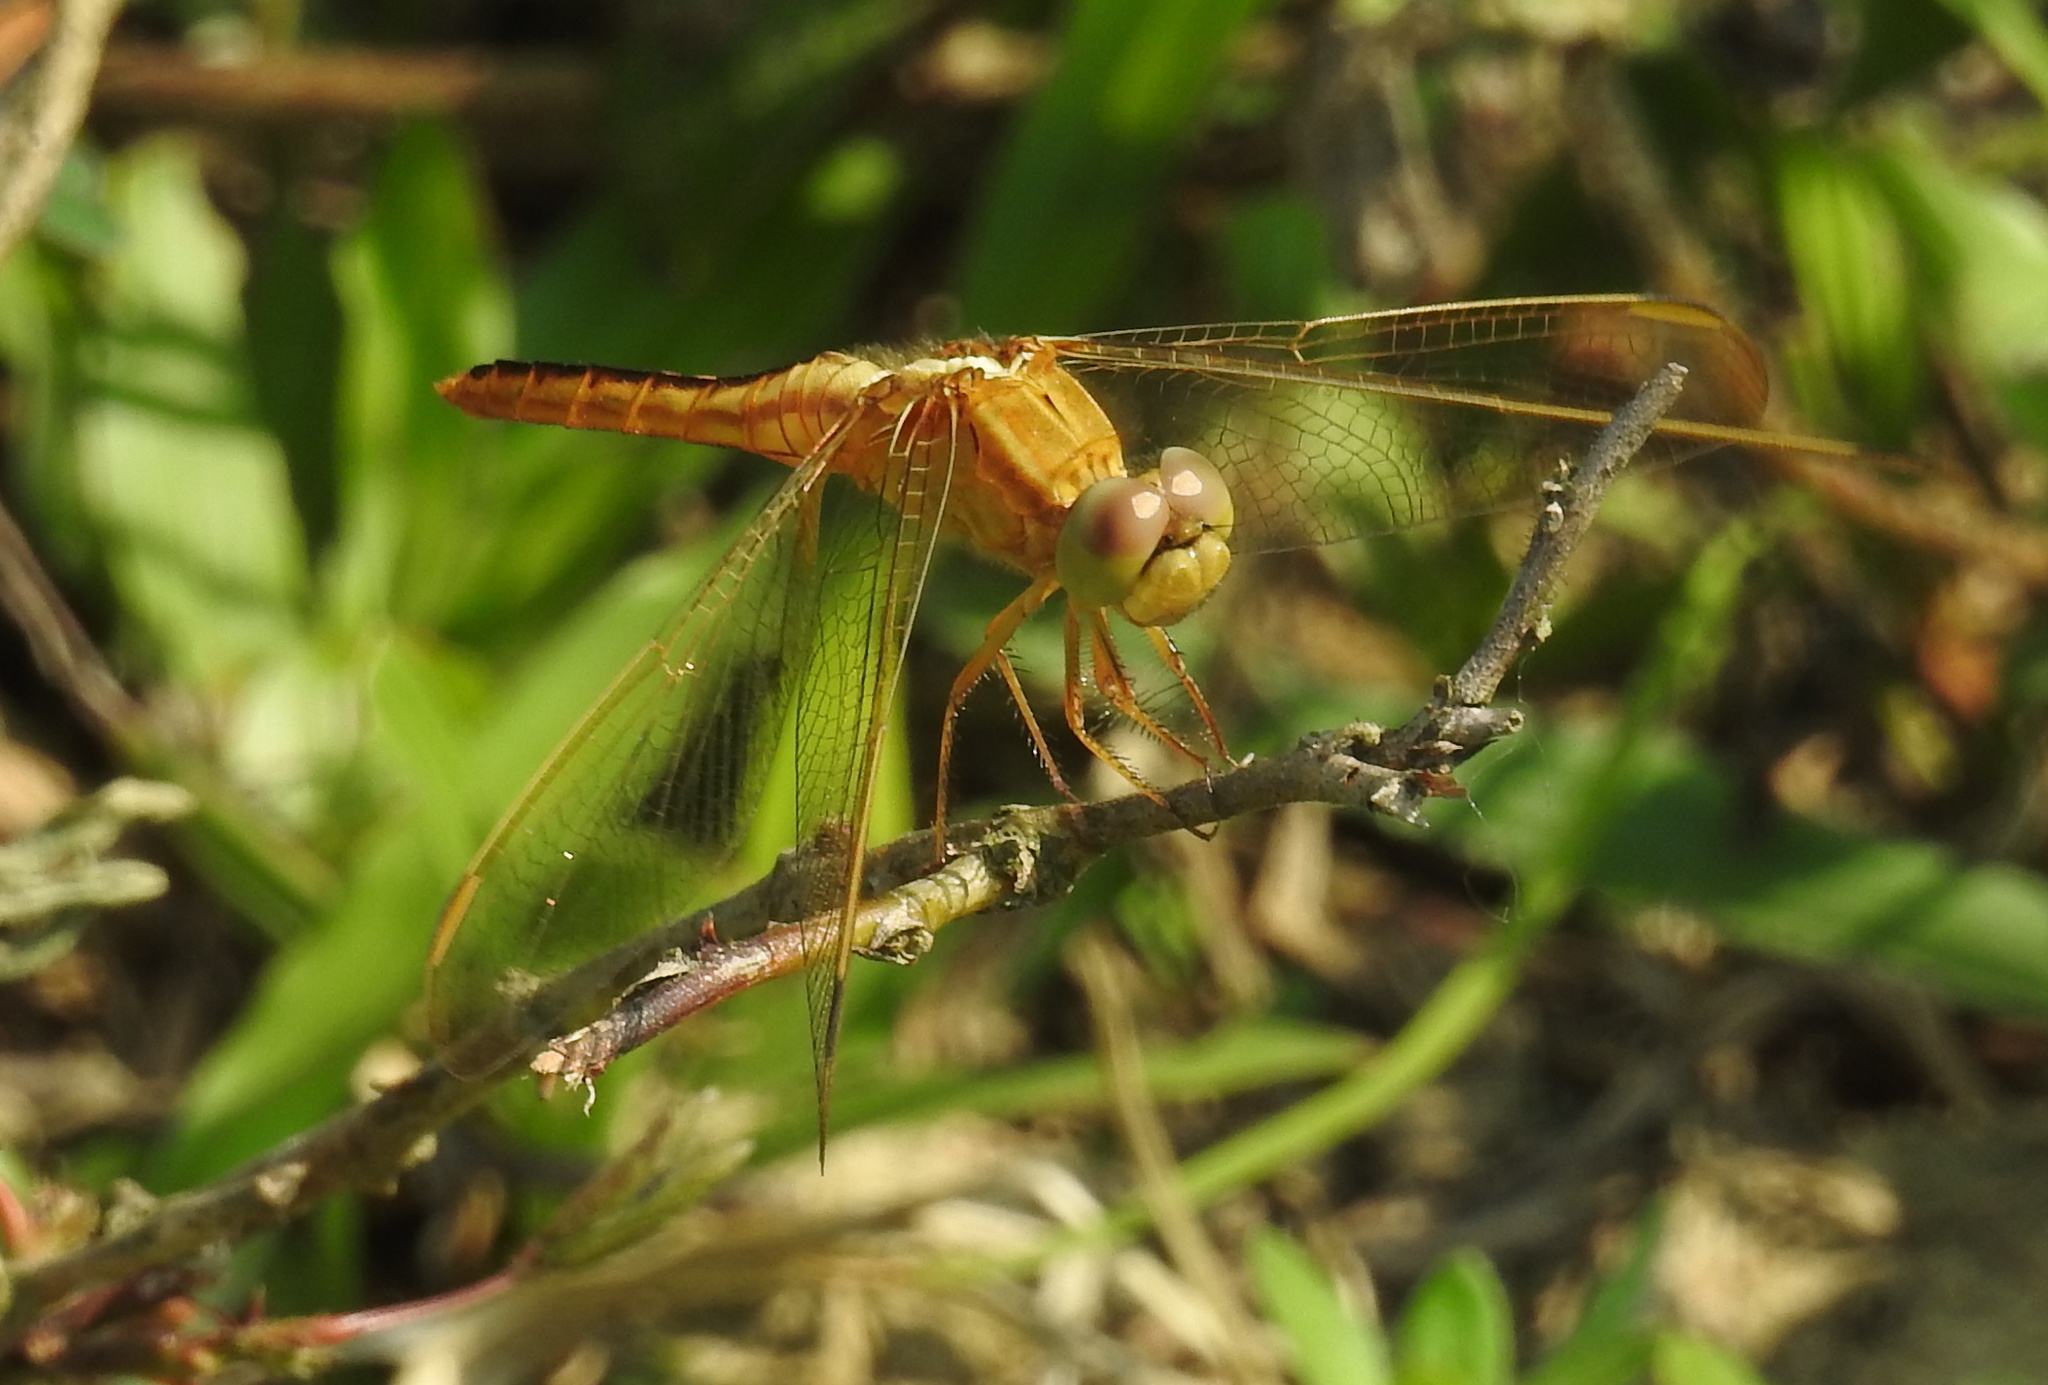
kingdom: Animalia
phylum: Arthropoda
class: Insecta
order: Odonata
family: Libellulidae
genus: Crocothemis
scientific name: Crocothemis servilia
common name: Scarlet skimmer
